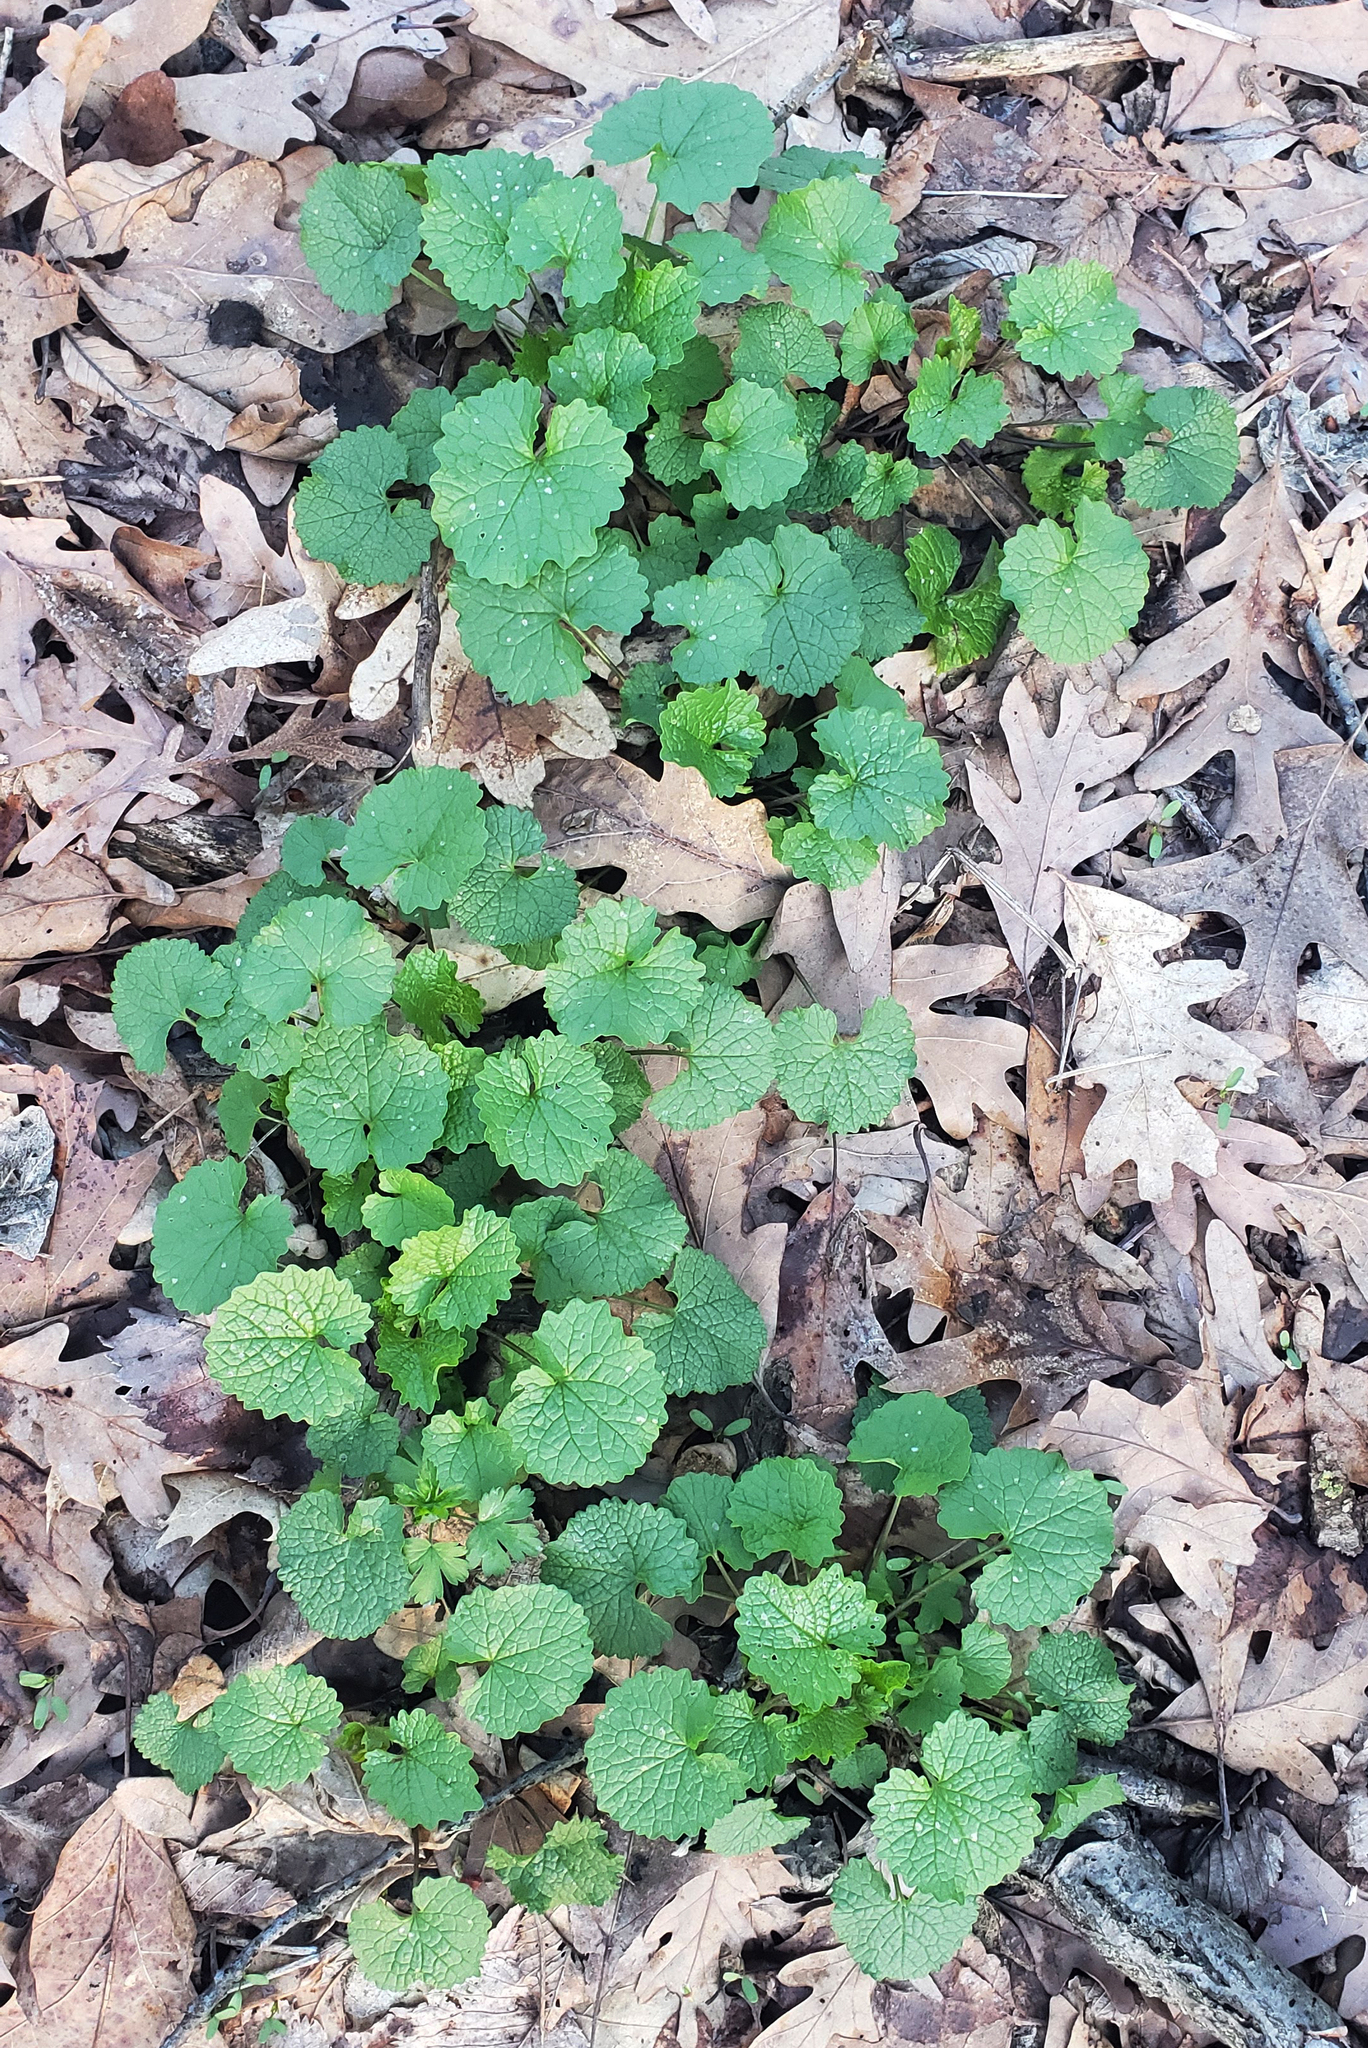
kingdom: Plantae
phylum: Tracheophyta
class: Magnoliopsida
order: Brassicales
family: Brassicaceae
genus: Alliaria
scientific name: Alliaria petiolata
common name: Garlic mustard
